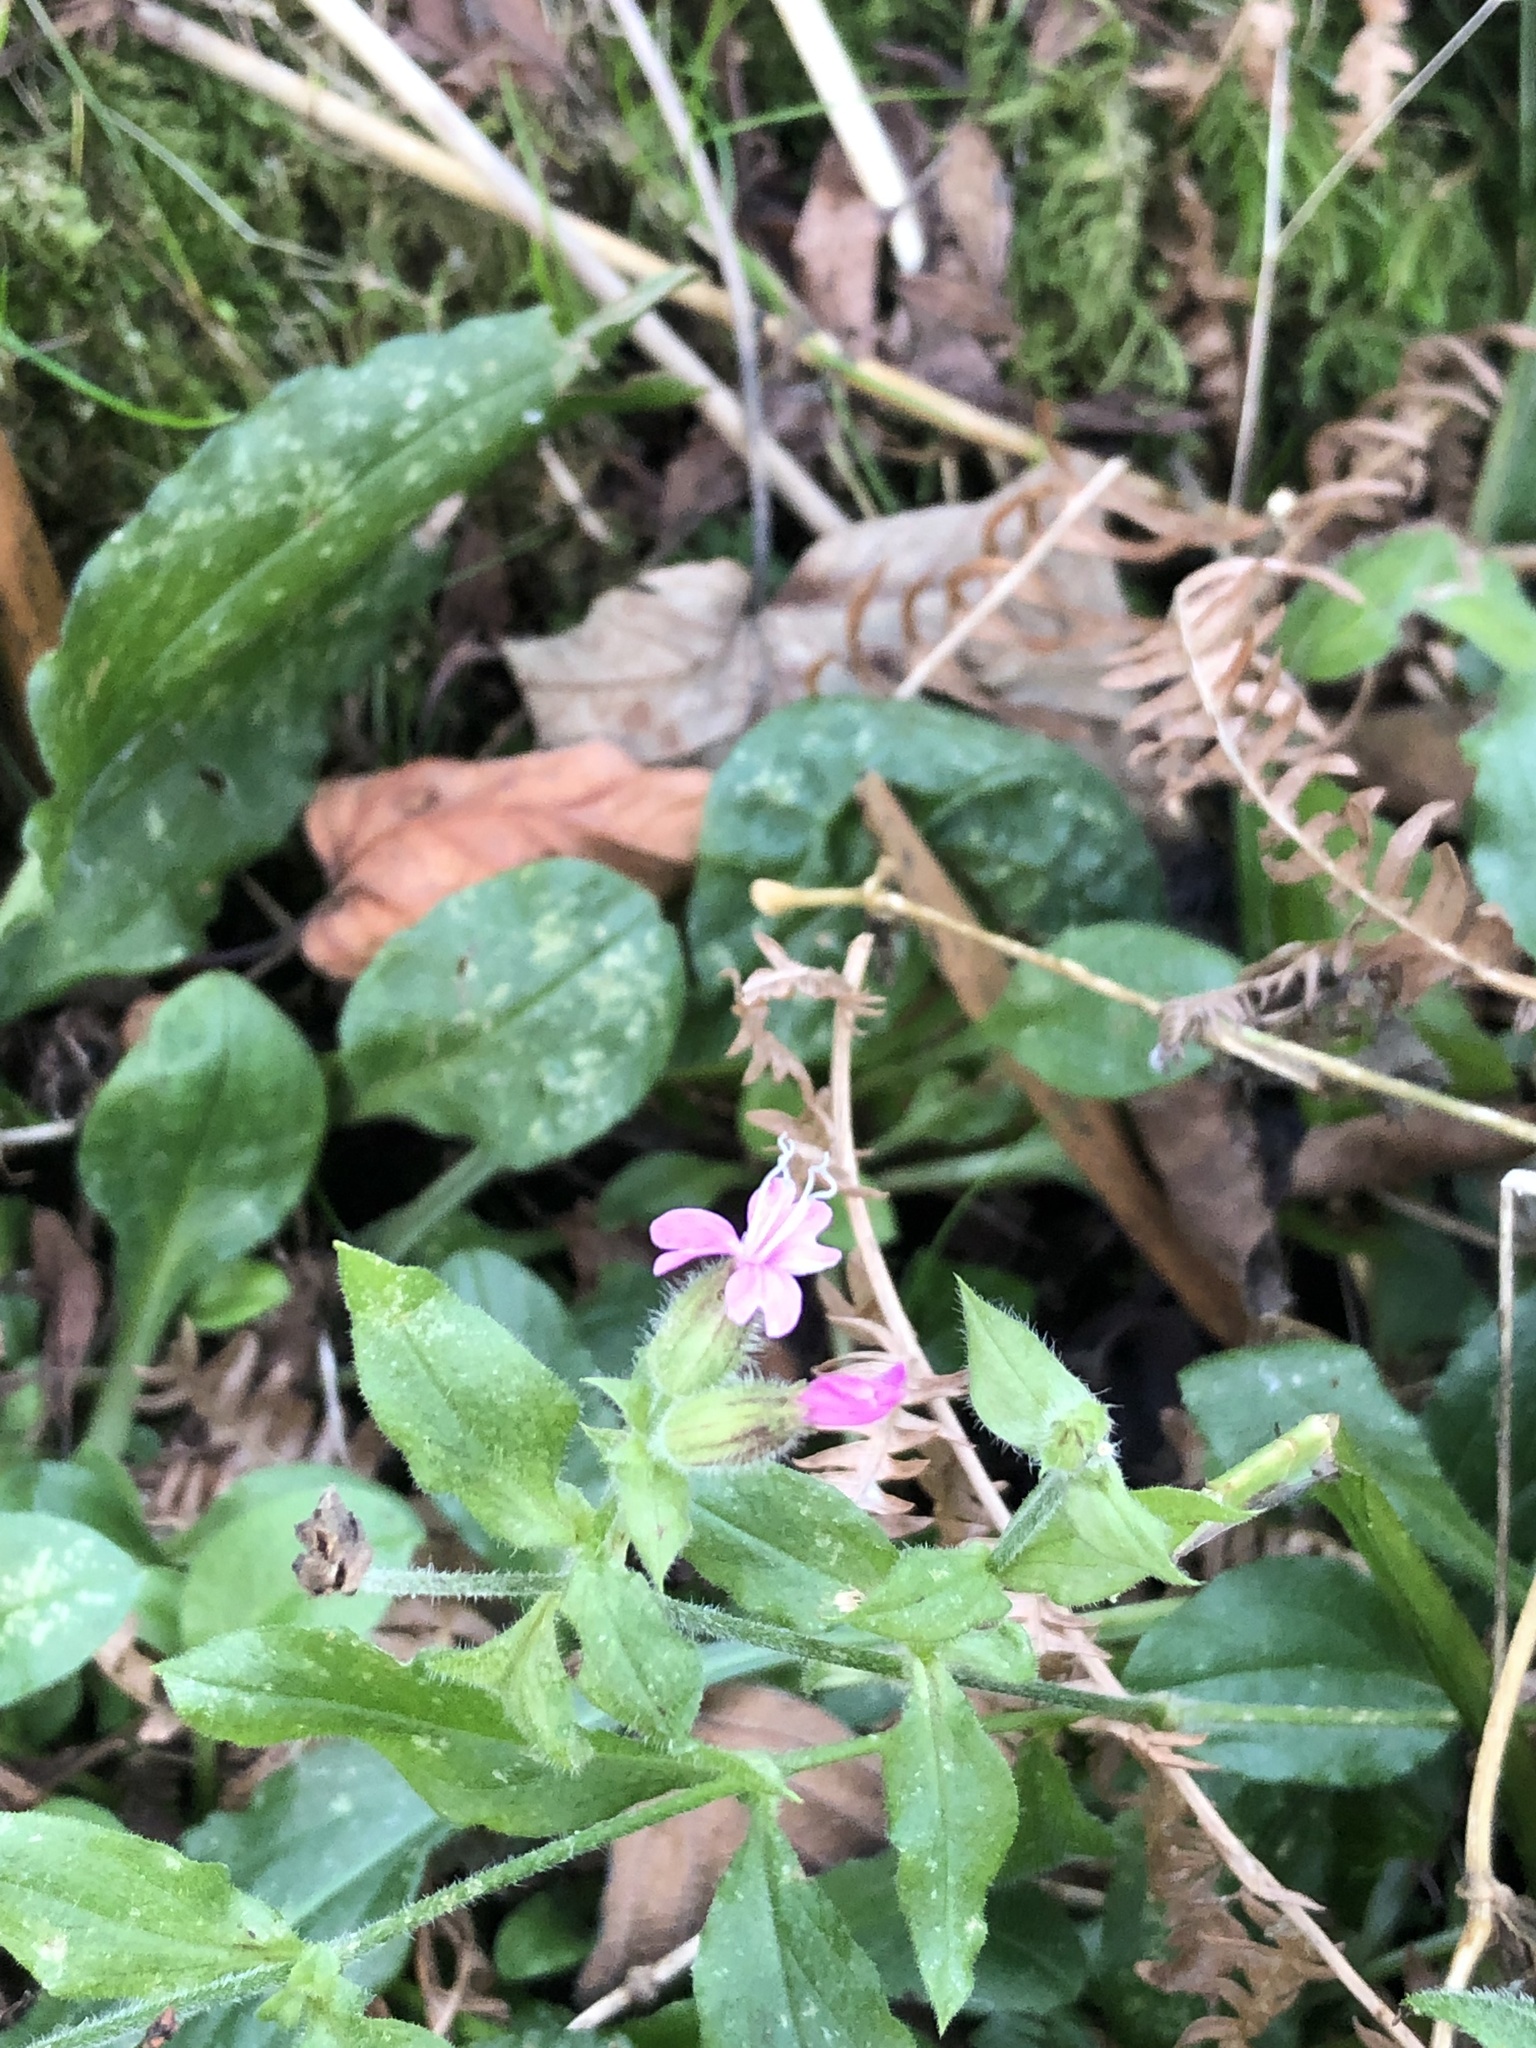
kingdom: Plantae
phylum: Tracheophyta
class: Magnoliopsida
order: Caryophyllales
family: Caryophyllaceae
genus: Silene
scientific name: Silene dioica
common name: Red campion
